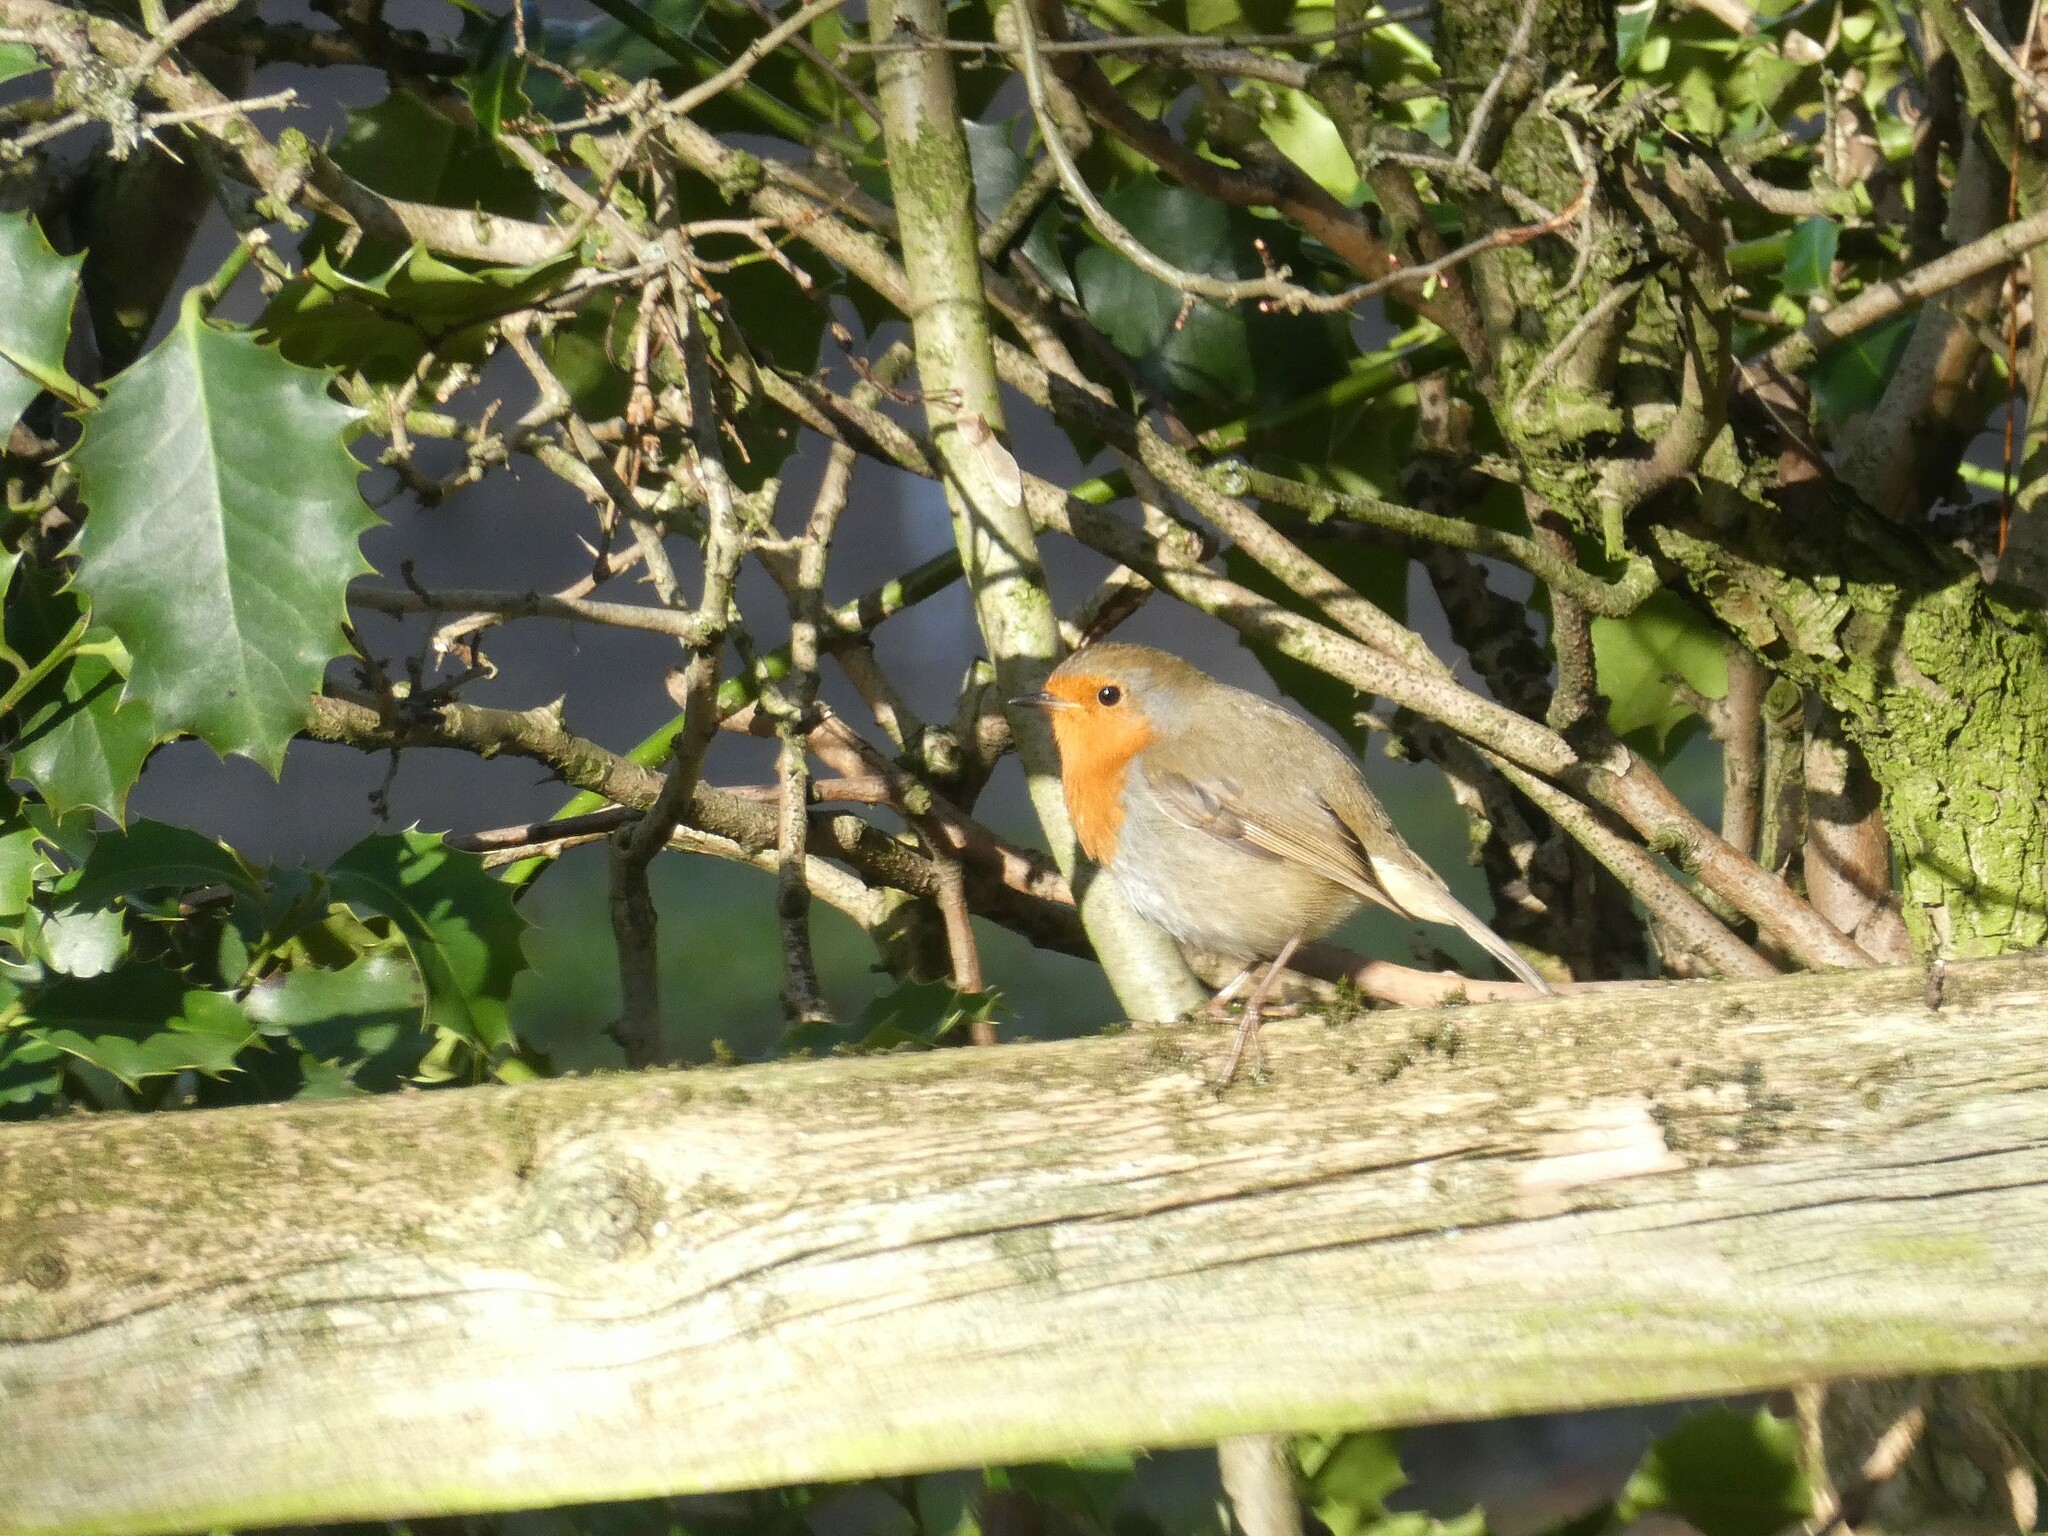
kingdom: Animalia
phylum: Chordata
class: Aves
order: Passeriformes
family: Muscicapidae
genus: Erithacus
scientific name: Erithacus rubecula
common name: European robin
